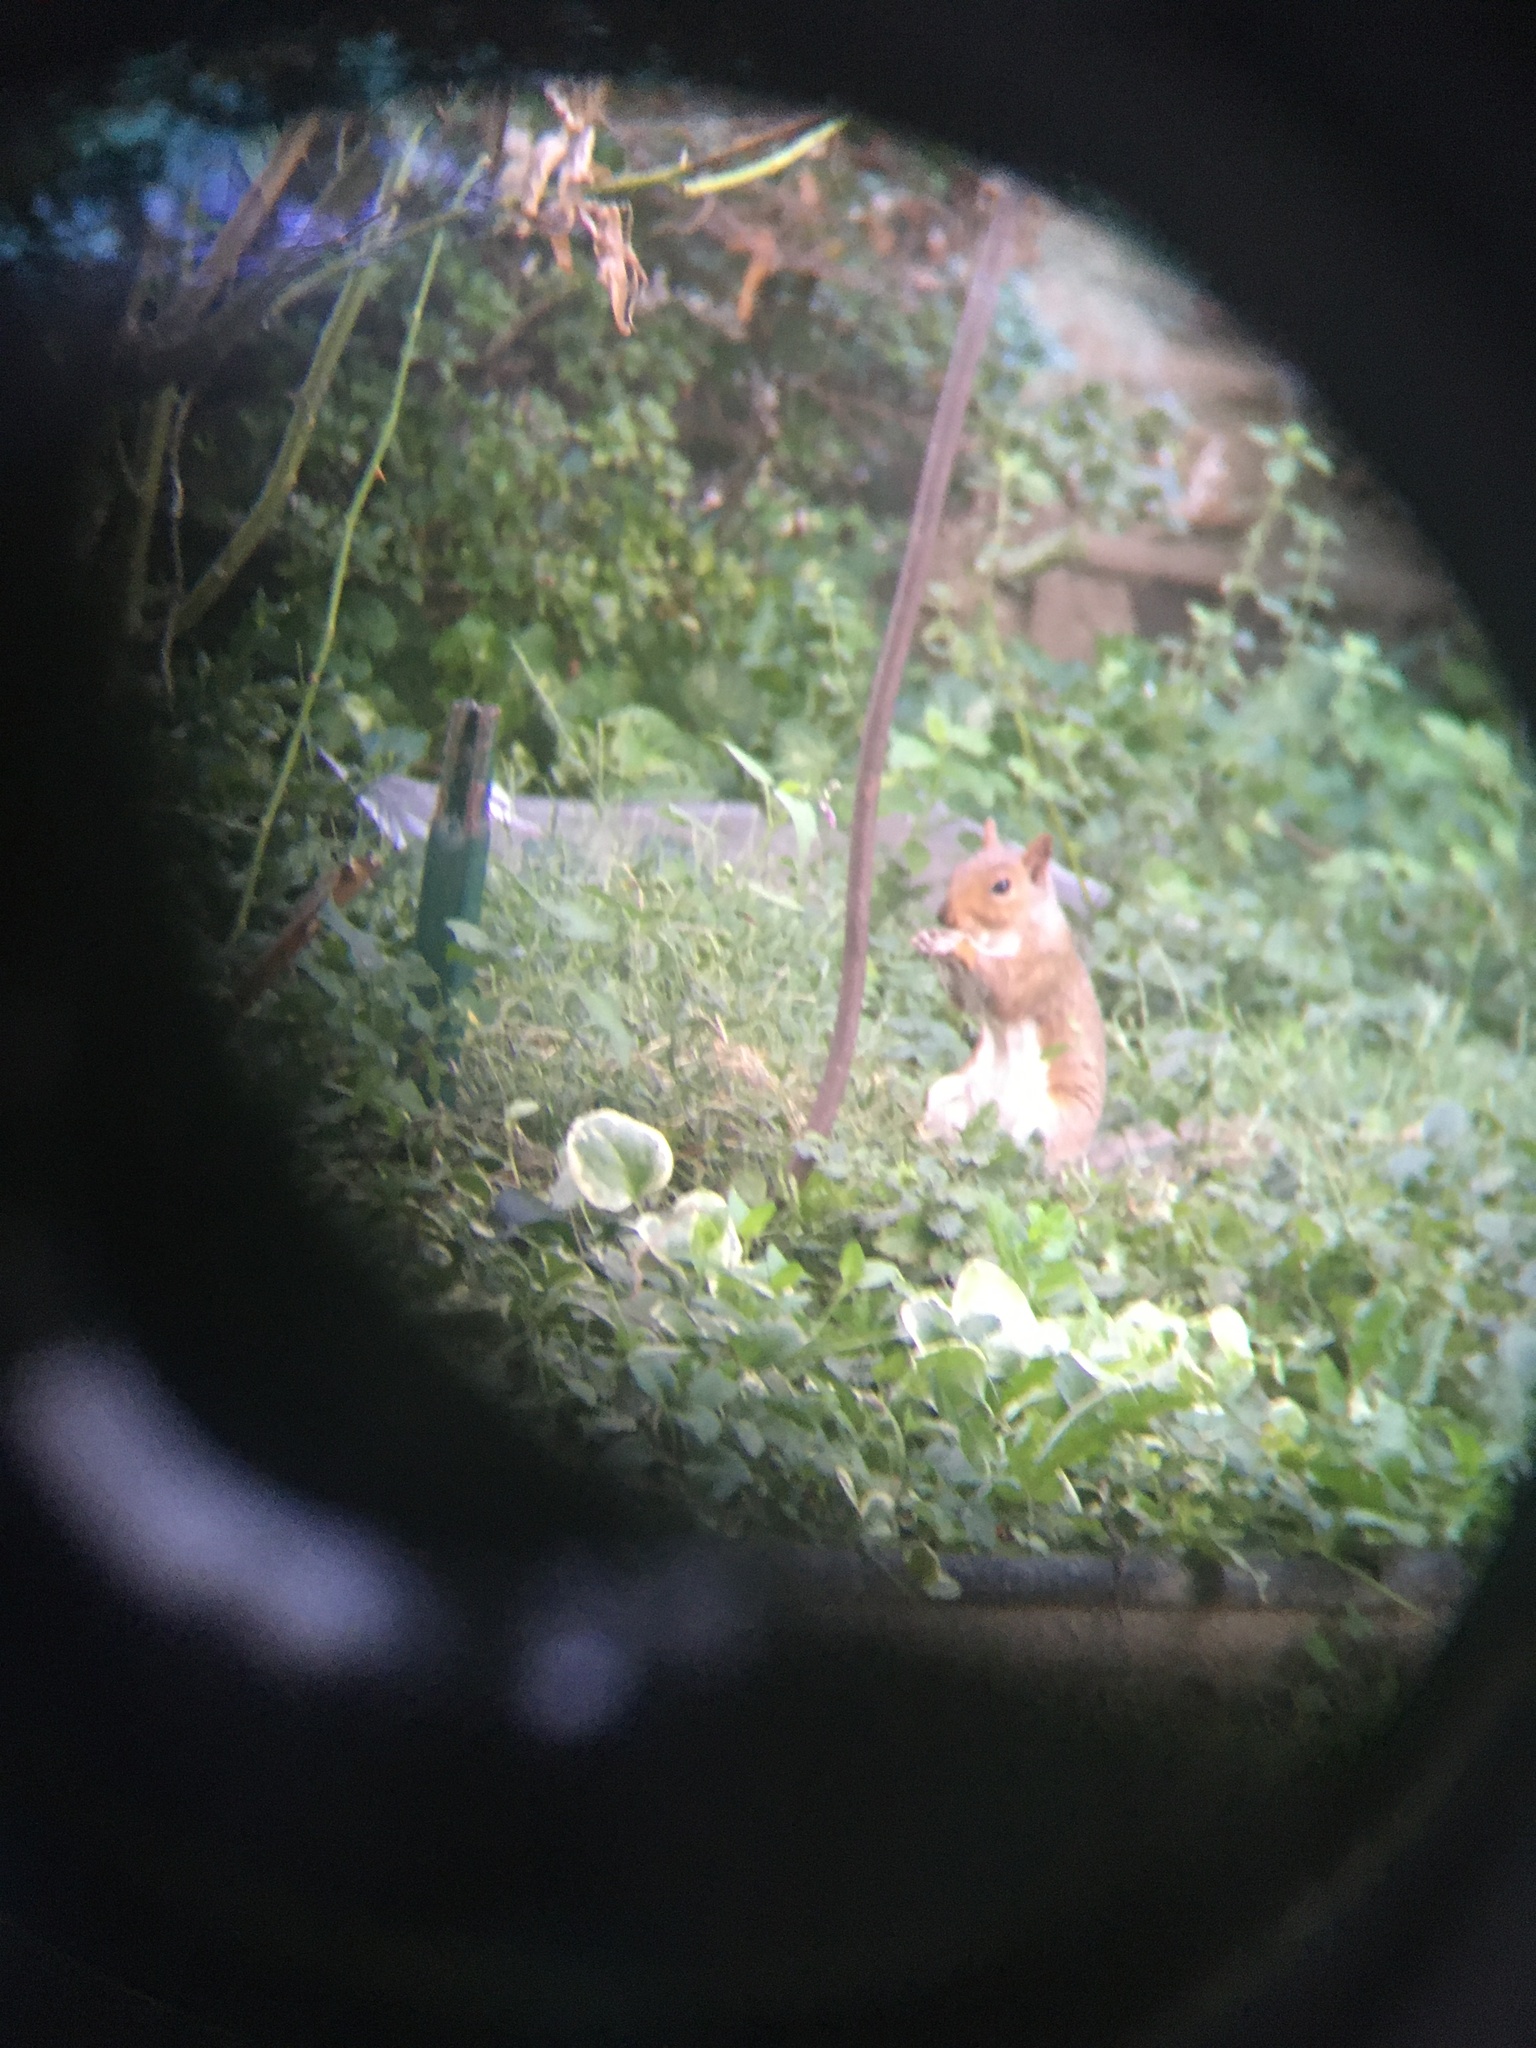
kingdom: Animalia
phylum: Chordata
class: Mammalia
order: Rodentia
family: Sciuridae
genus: Sciurus
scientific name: Sciurus carolinensis
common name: Eastern gray squirrel
